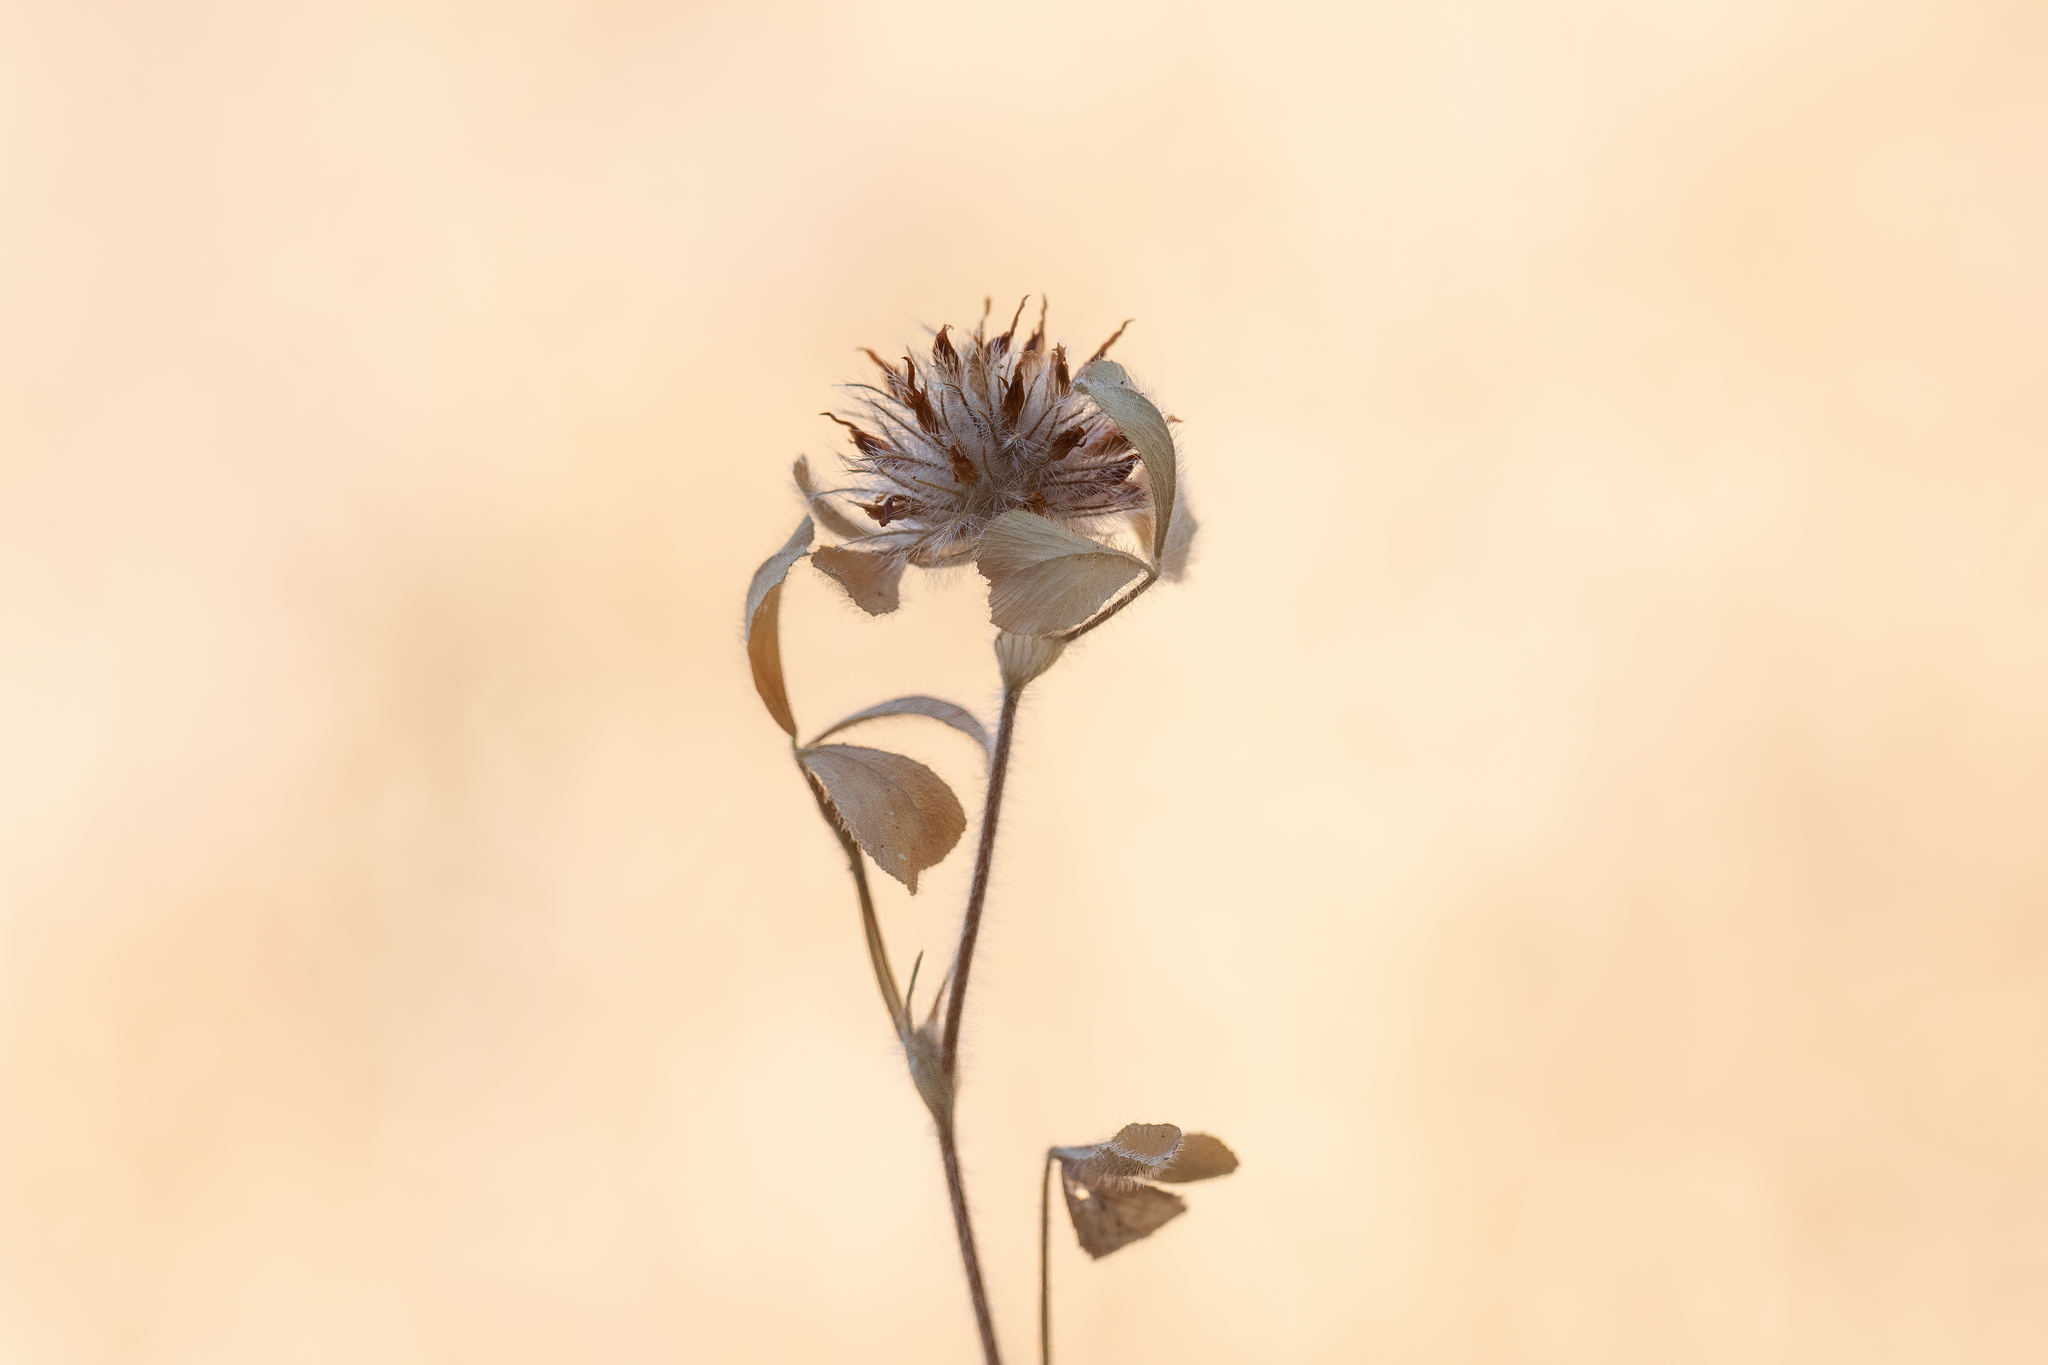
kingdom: Plantae
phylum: Tracheophyta
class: Magnoliopsida
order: Fabales
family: Fabaceae
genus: Trifolium
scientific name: Trifolium hirtum
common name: Rose clover
